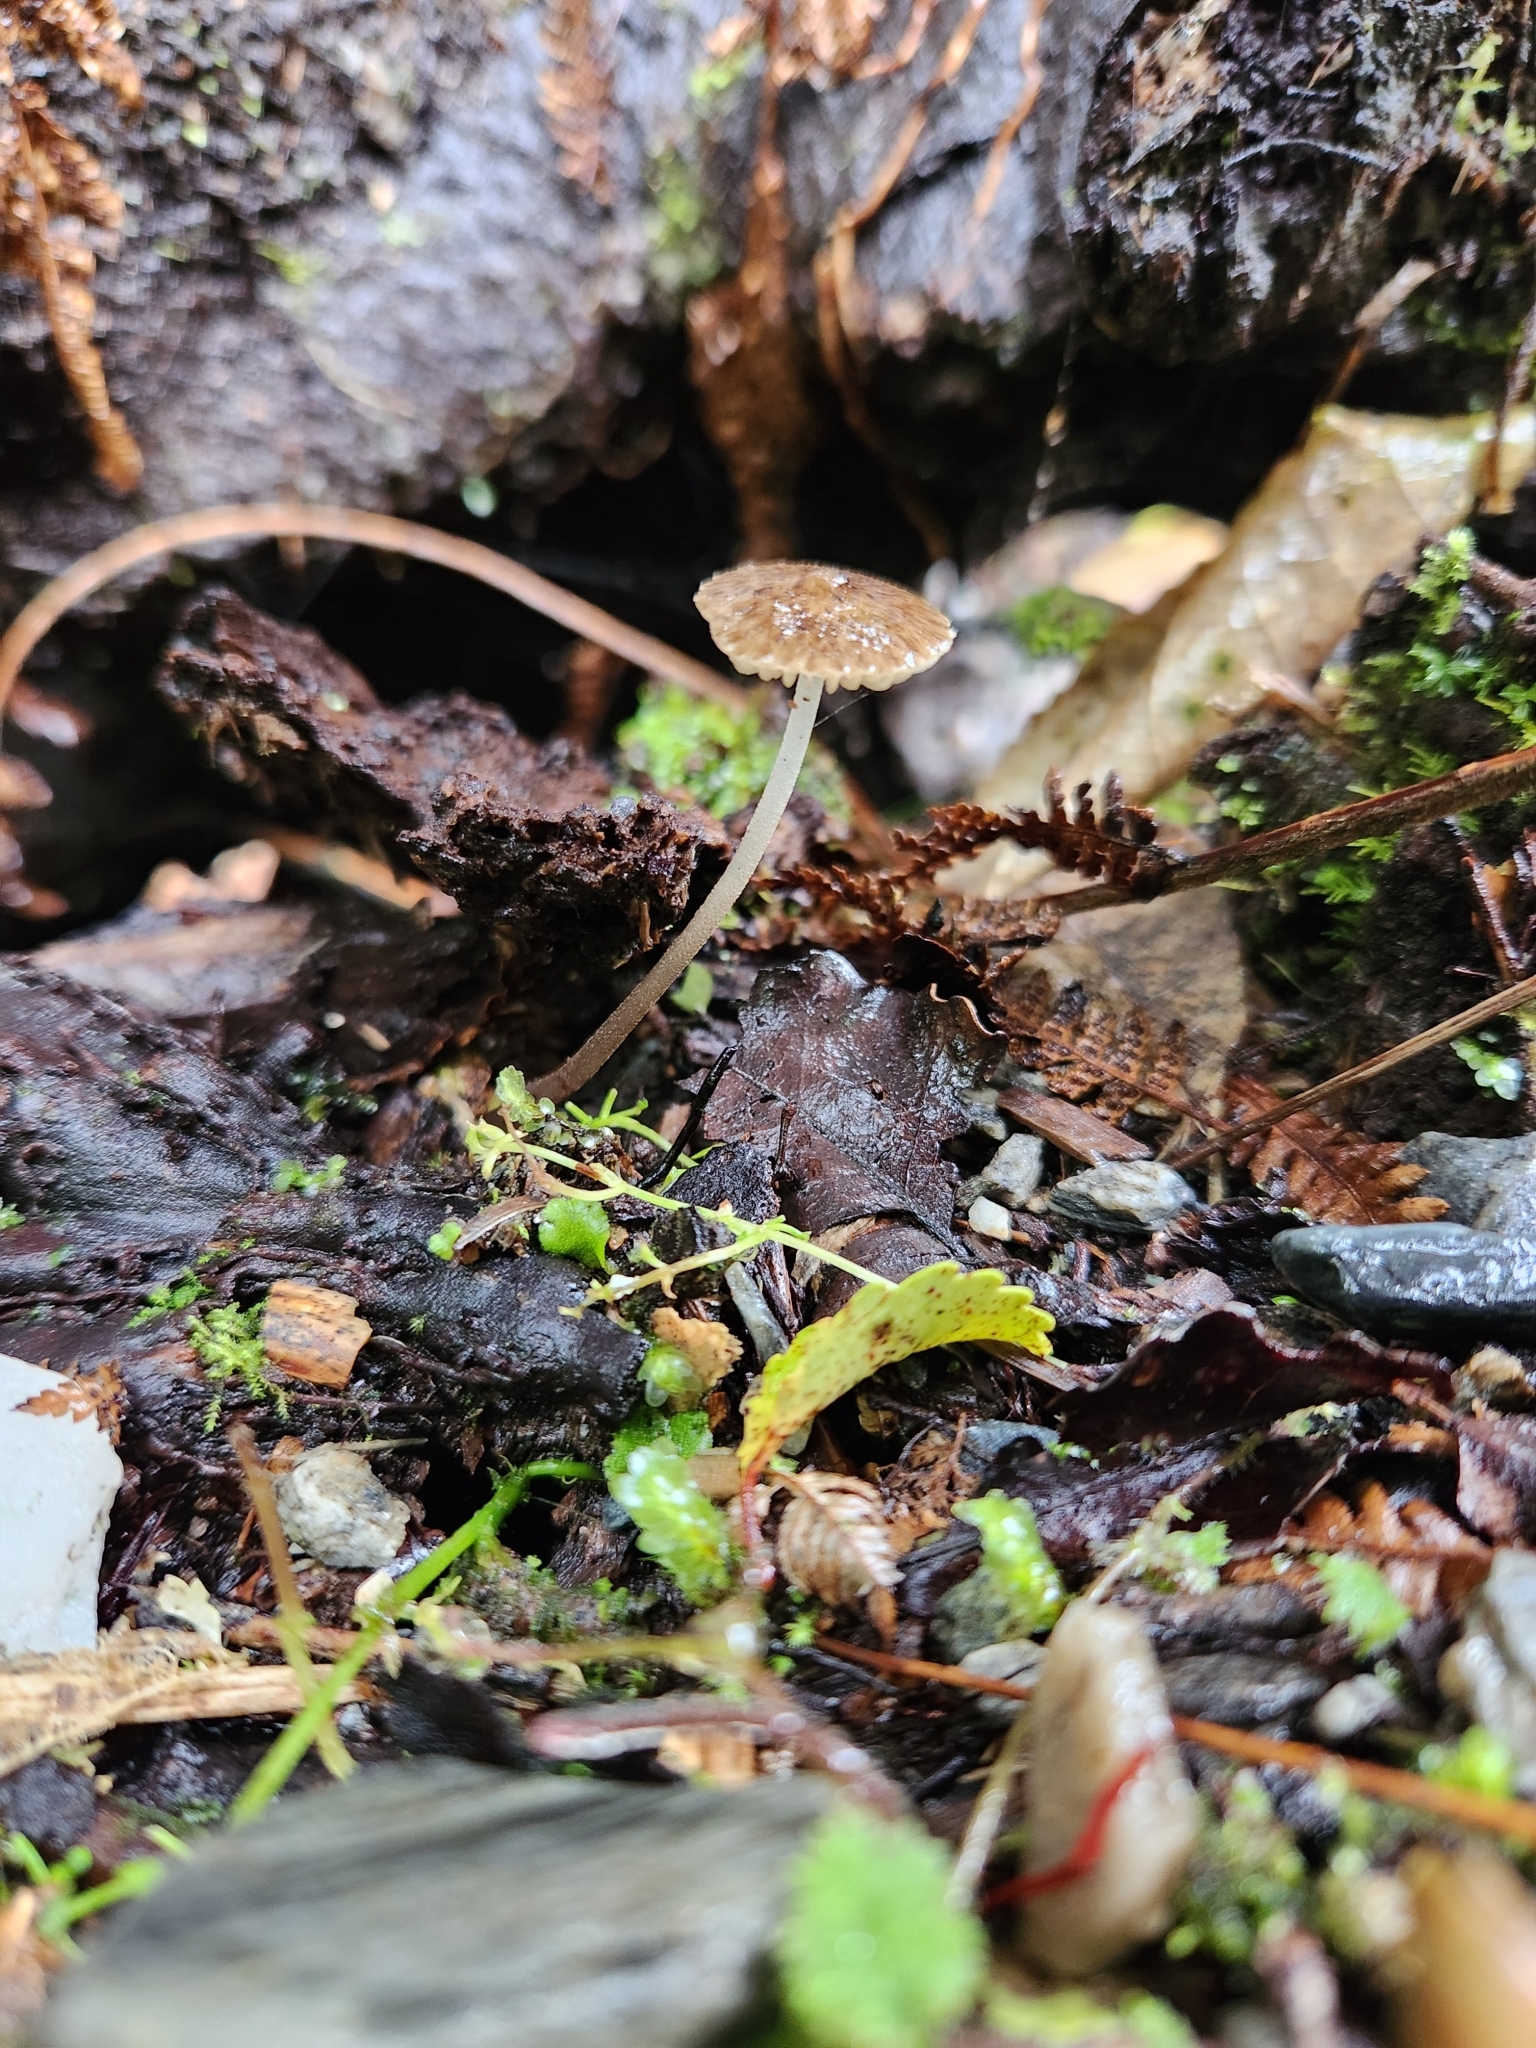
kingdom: Fungi
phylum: Basidiomycota
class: Agaricomycetes
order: Agaricales
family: Porotheleaceae
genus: Pseudohydropus
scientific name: Pseudohydropus parafunebris
